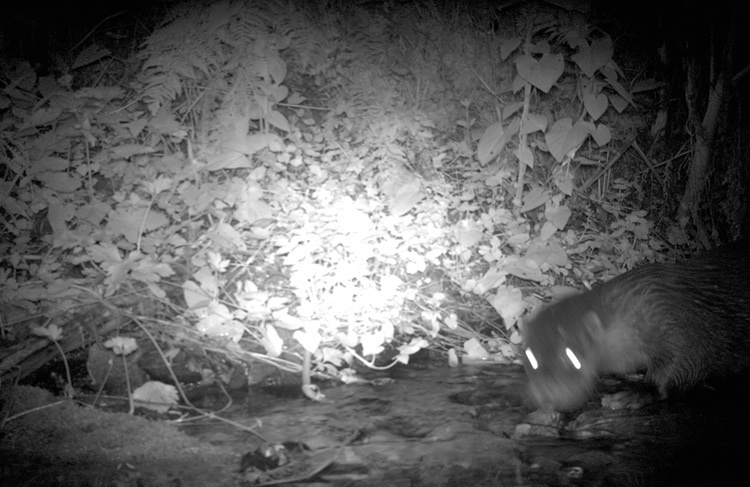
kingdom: Animalia
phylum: Chordata
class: Mammalia
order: Carnivora
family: Mustelidae
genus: Lutra
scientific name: Lutra lutra
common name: European otter
